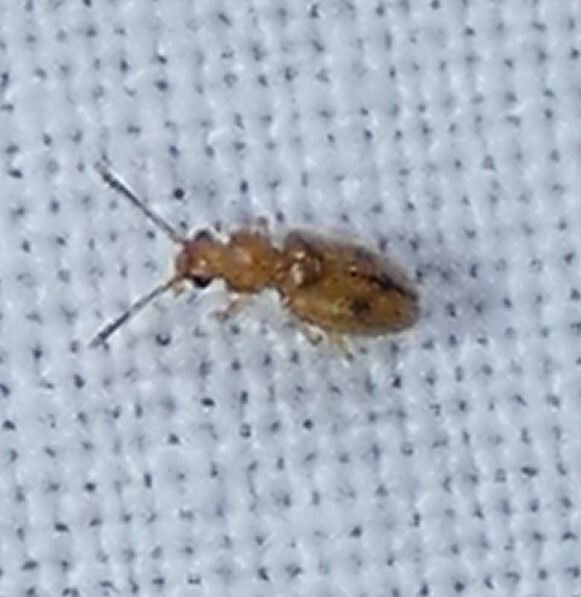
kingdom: Animalia
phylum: Arthropoda
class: Insecta
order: Coleoptera
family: Silvanidae
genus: Psammoecus
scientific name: Psammoecus trimaculatus
